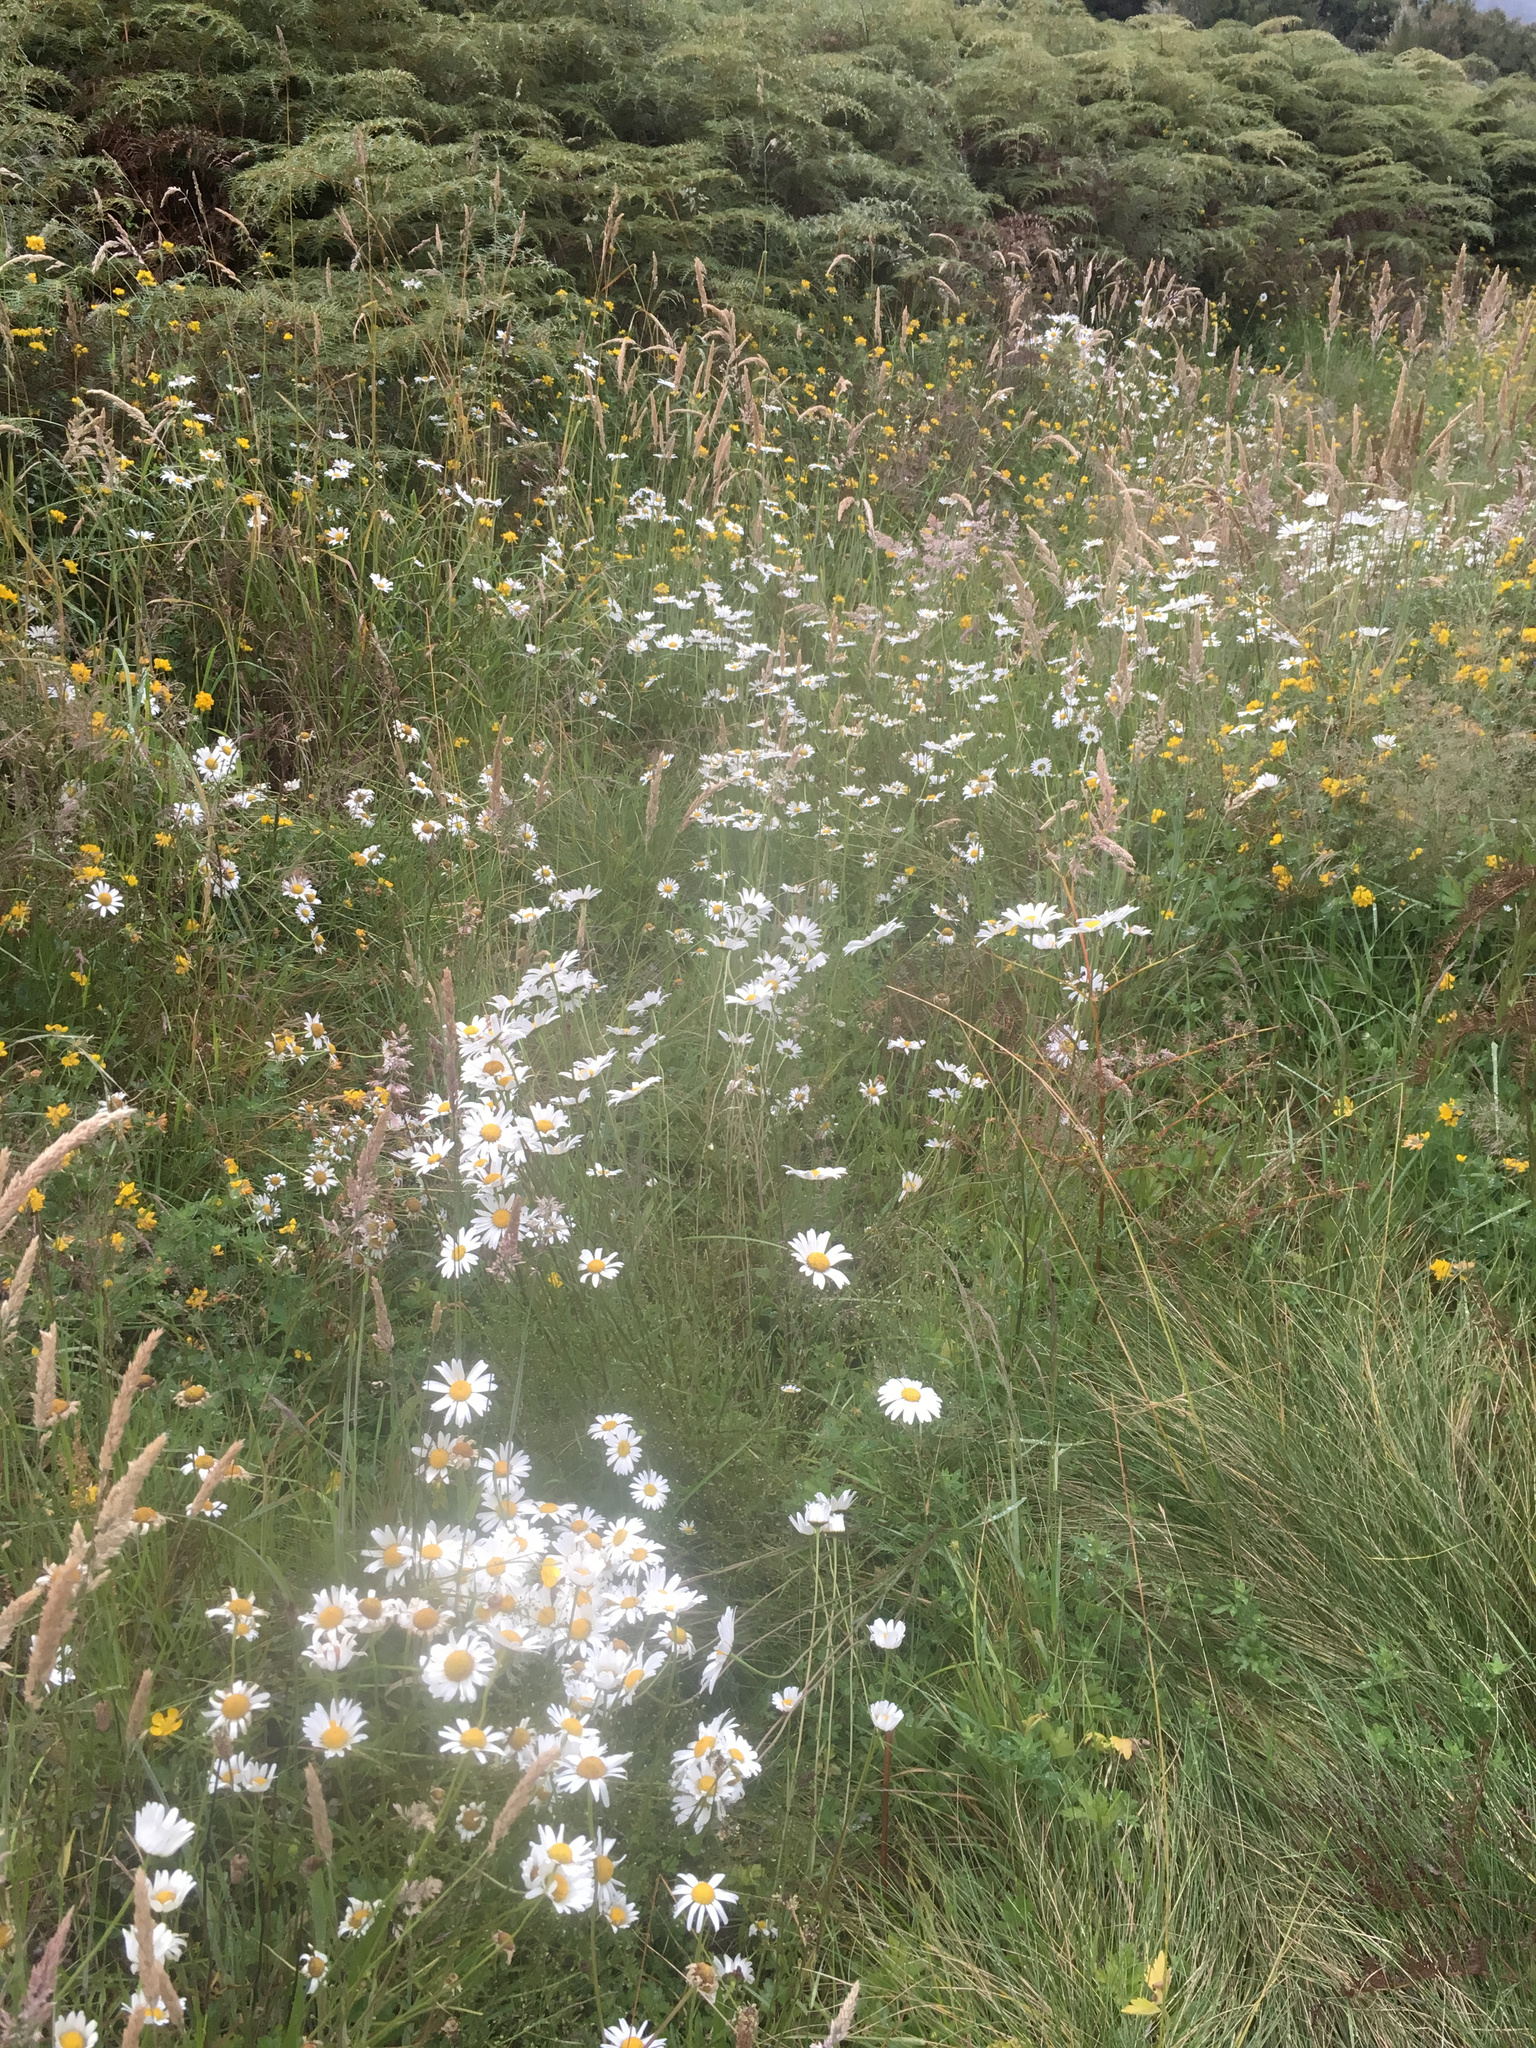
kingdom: Plantae
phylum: Tracheophyta
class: Magnoliopsida
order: Asterales
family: Asteraceae
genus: Leucanthemum
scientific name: Leucanthemum vulgare
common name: Oxeye daisy
